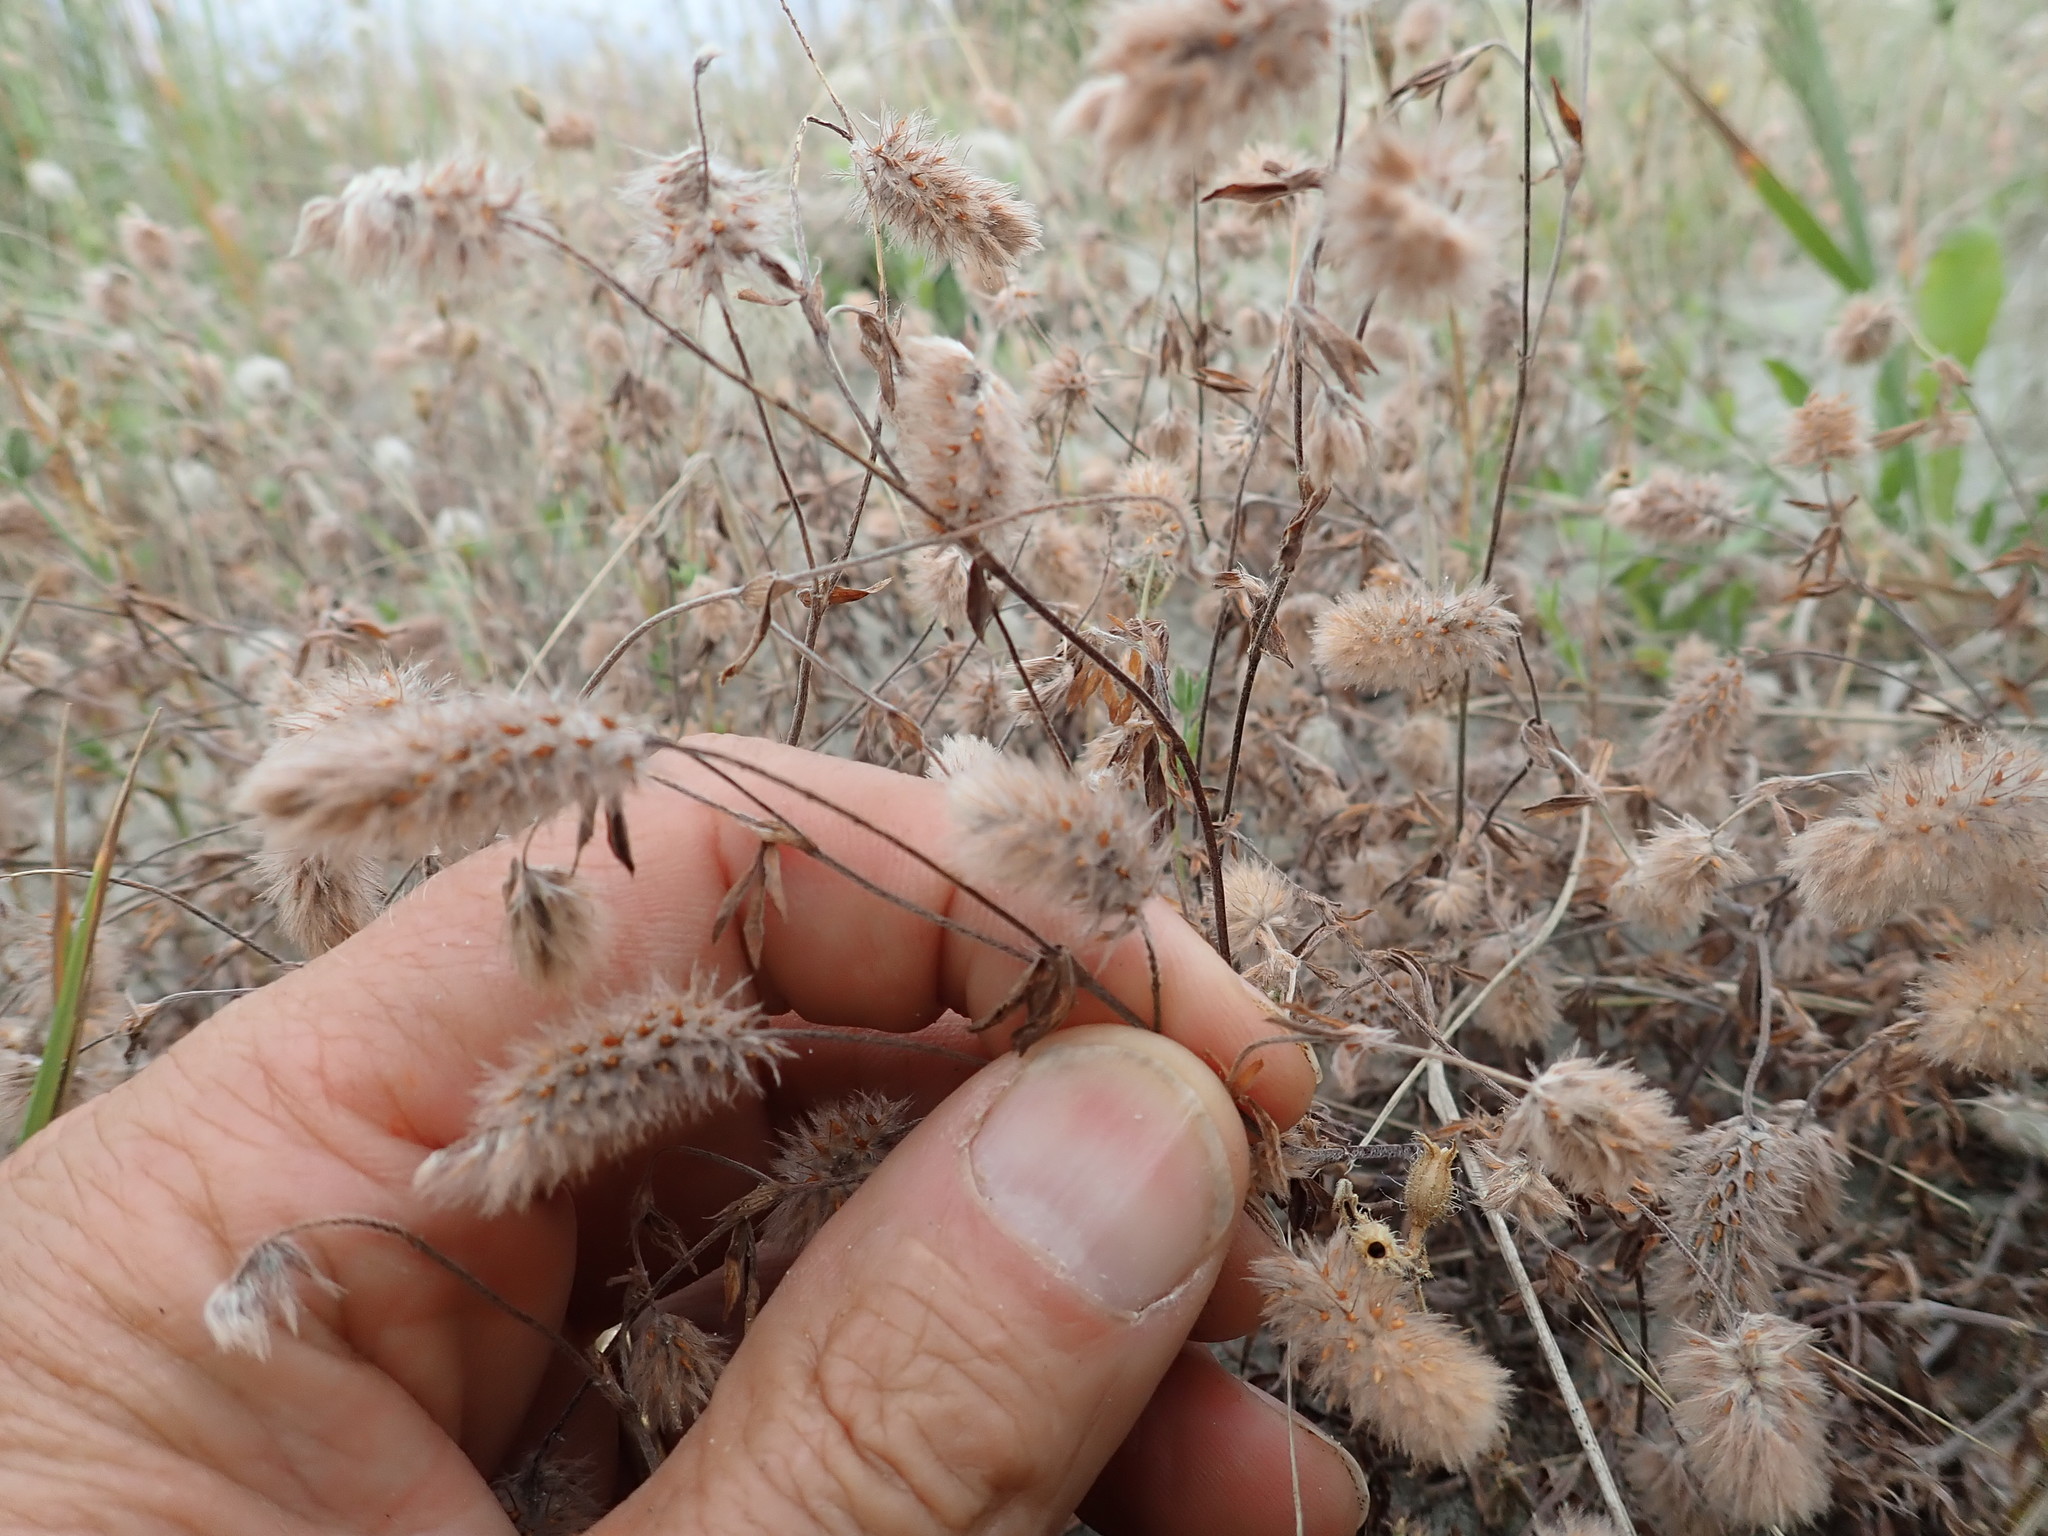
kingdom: Plantae
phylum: Tracheophyta
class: Magnoliopsida
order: Fabales
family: Fabaceae
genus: Trifolium
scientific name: Trifolium arvense
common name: Hare's-foot clover
